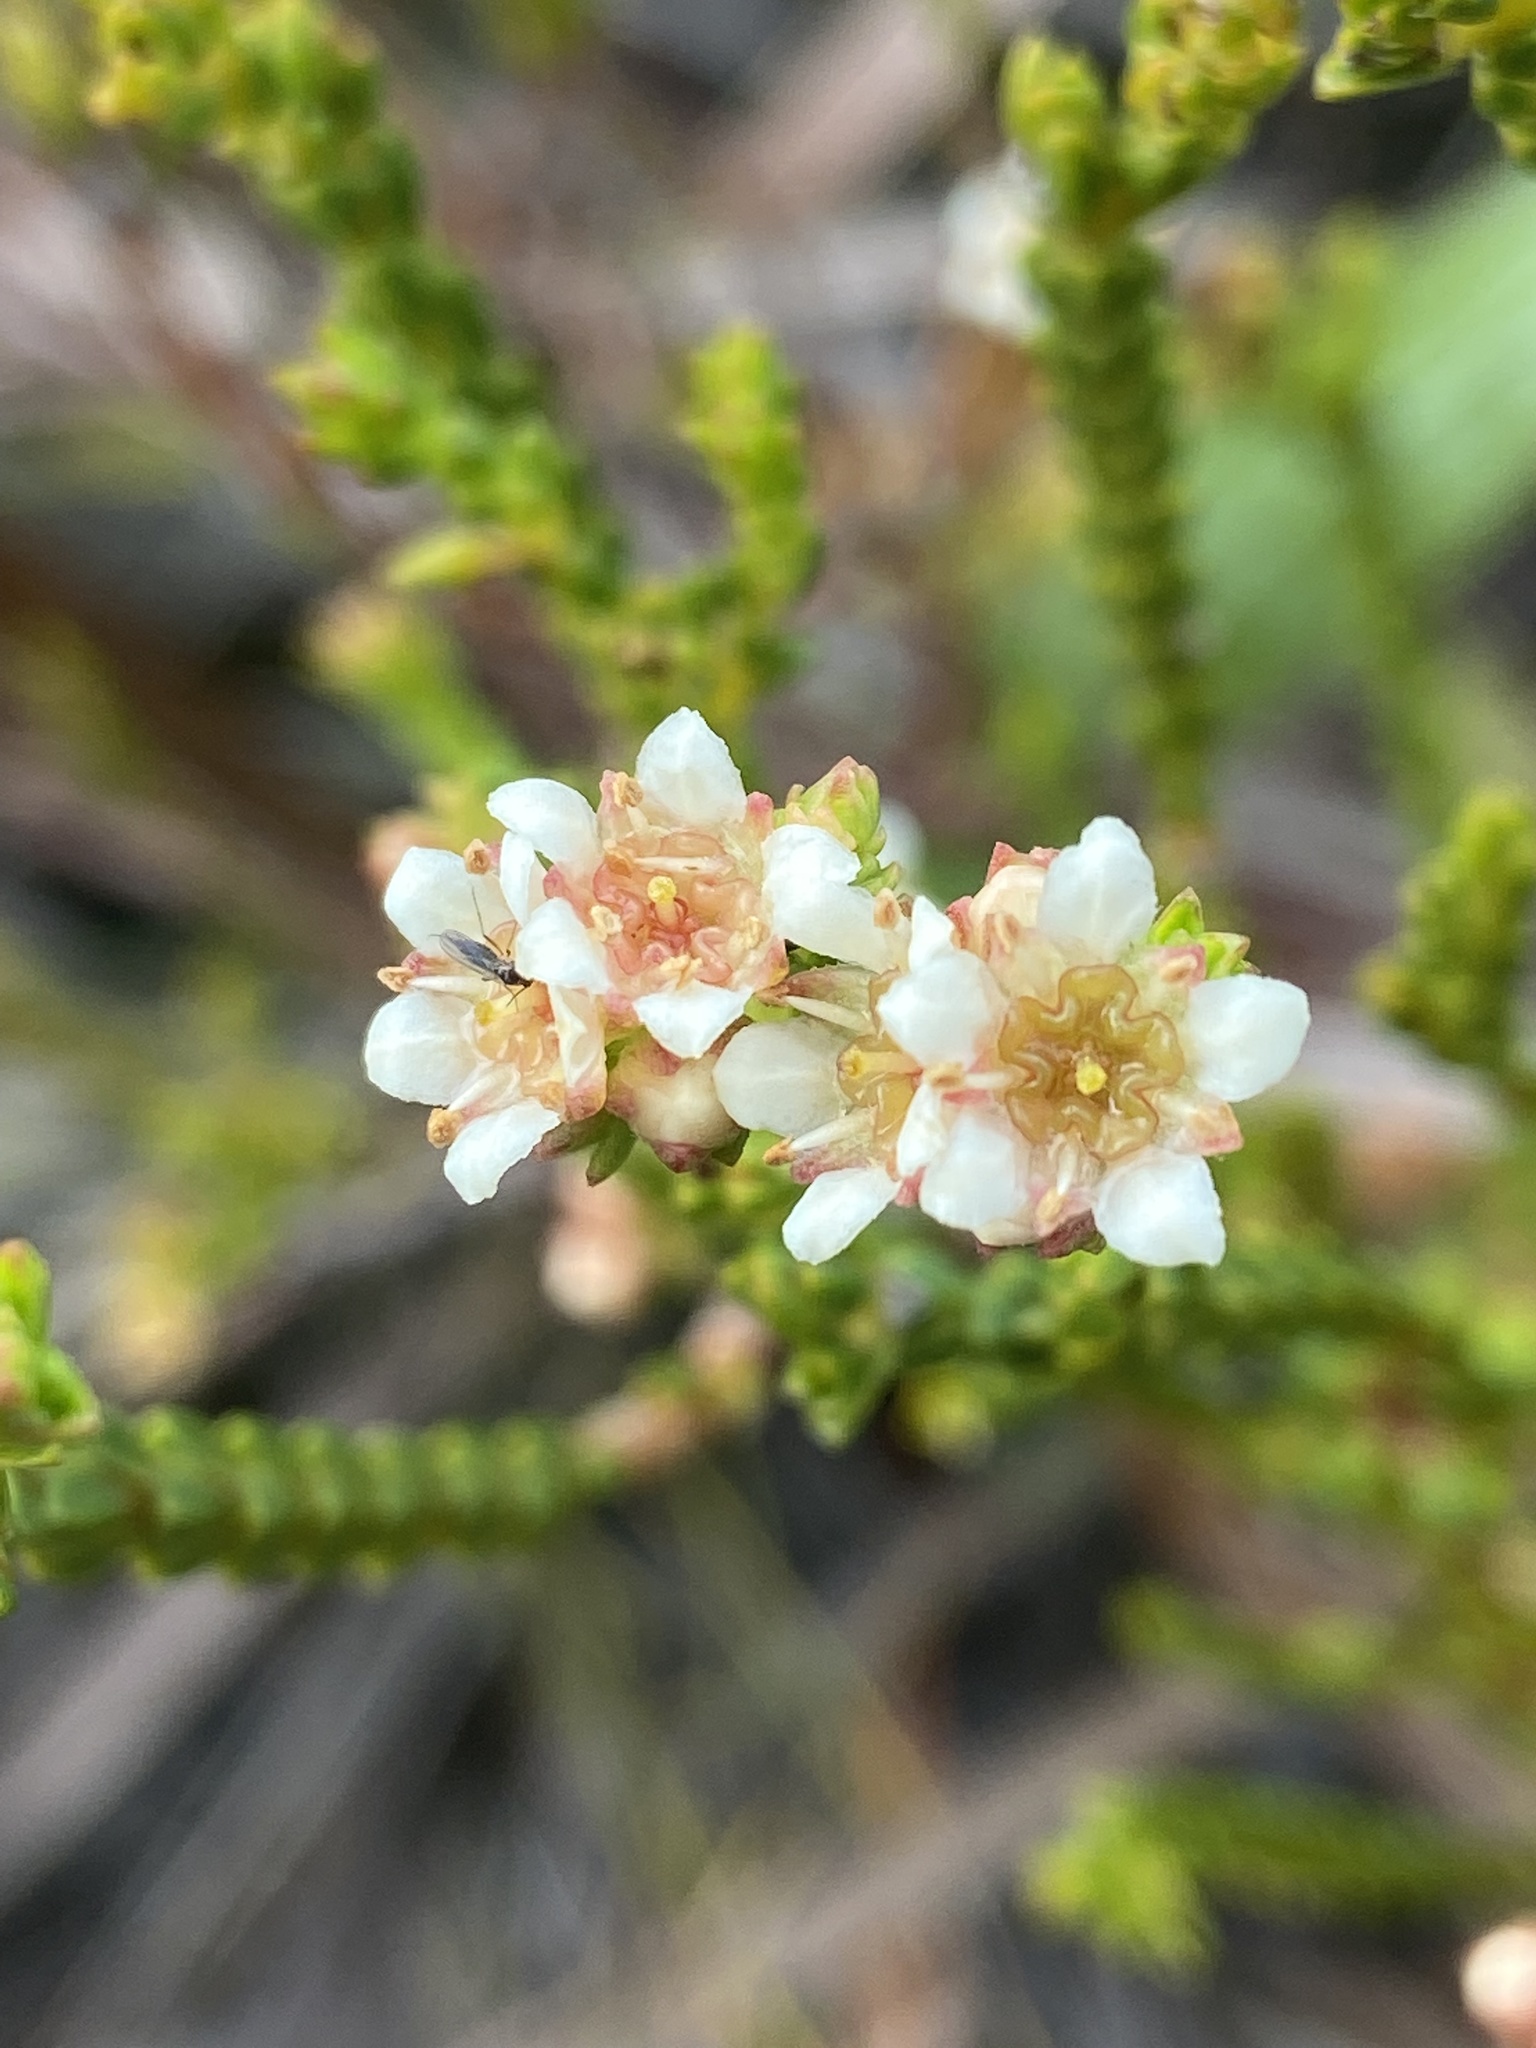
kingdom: Plantae
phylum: Tracheophyta
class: Magnoliopsida
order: Sapindales
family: Rutaceae
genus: Diosma
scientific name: Diosma oppositifolia
